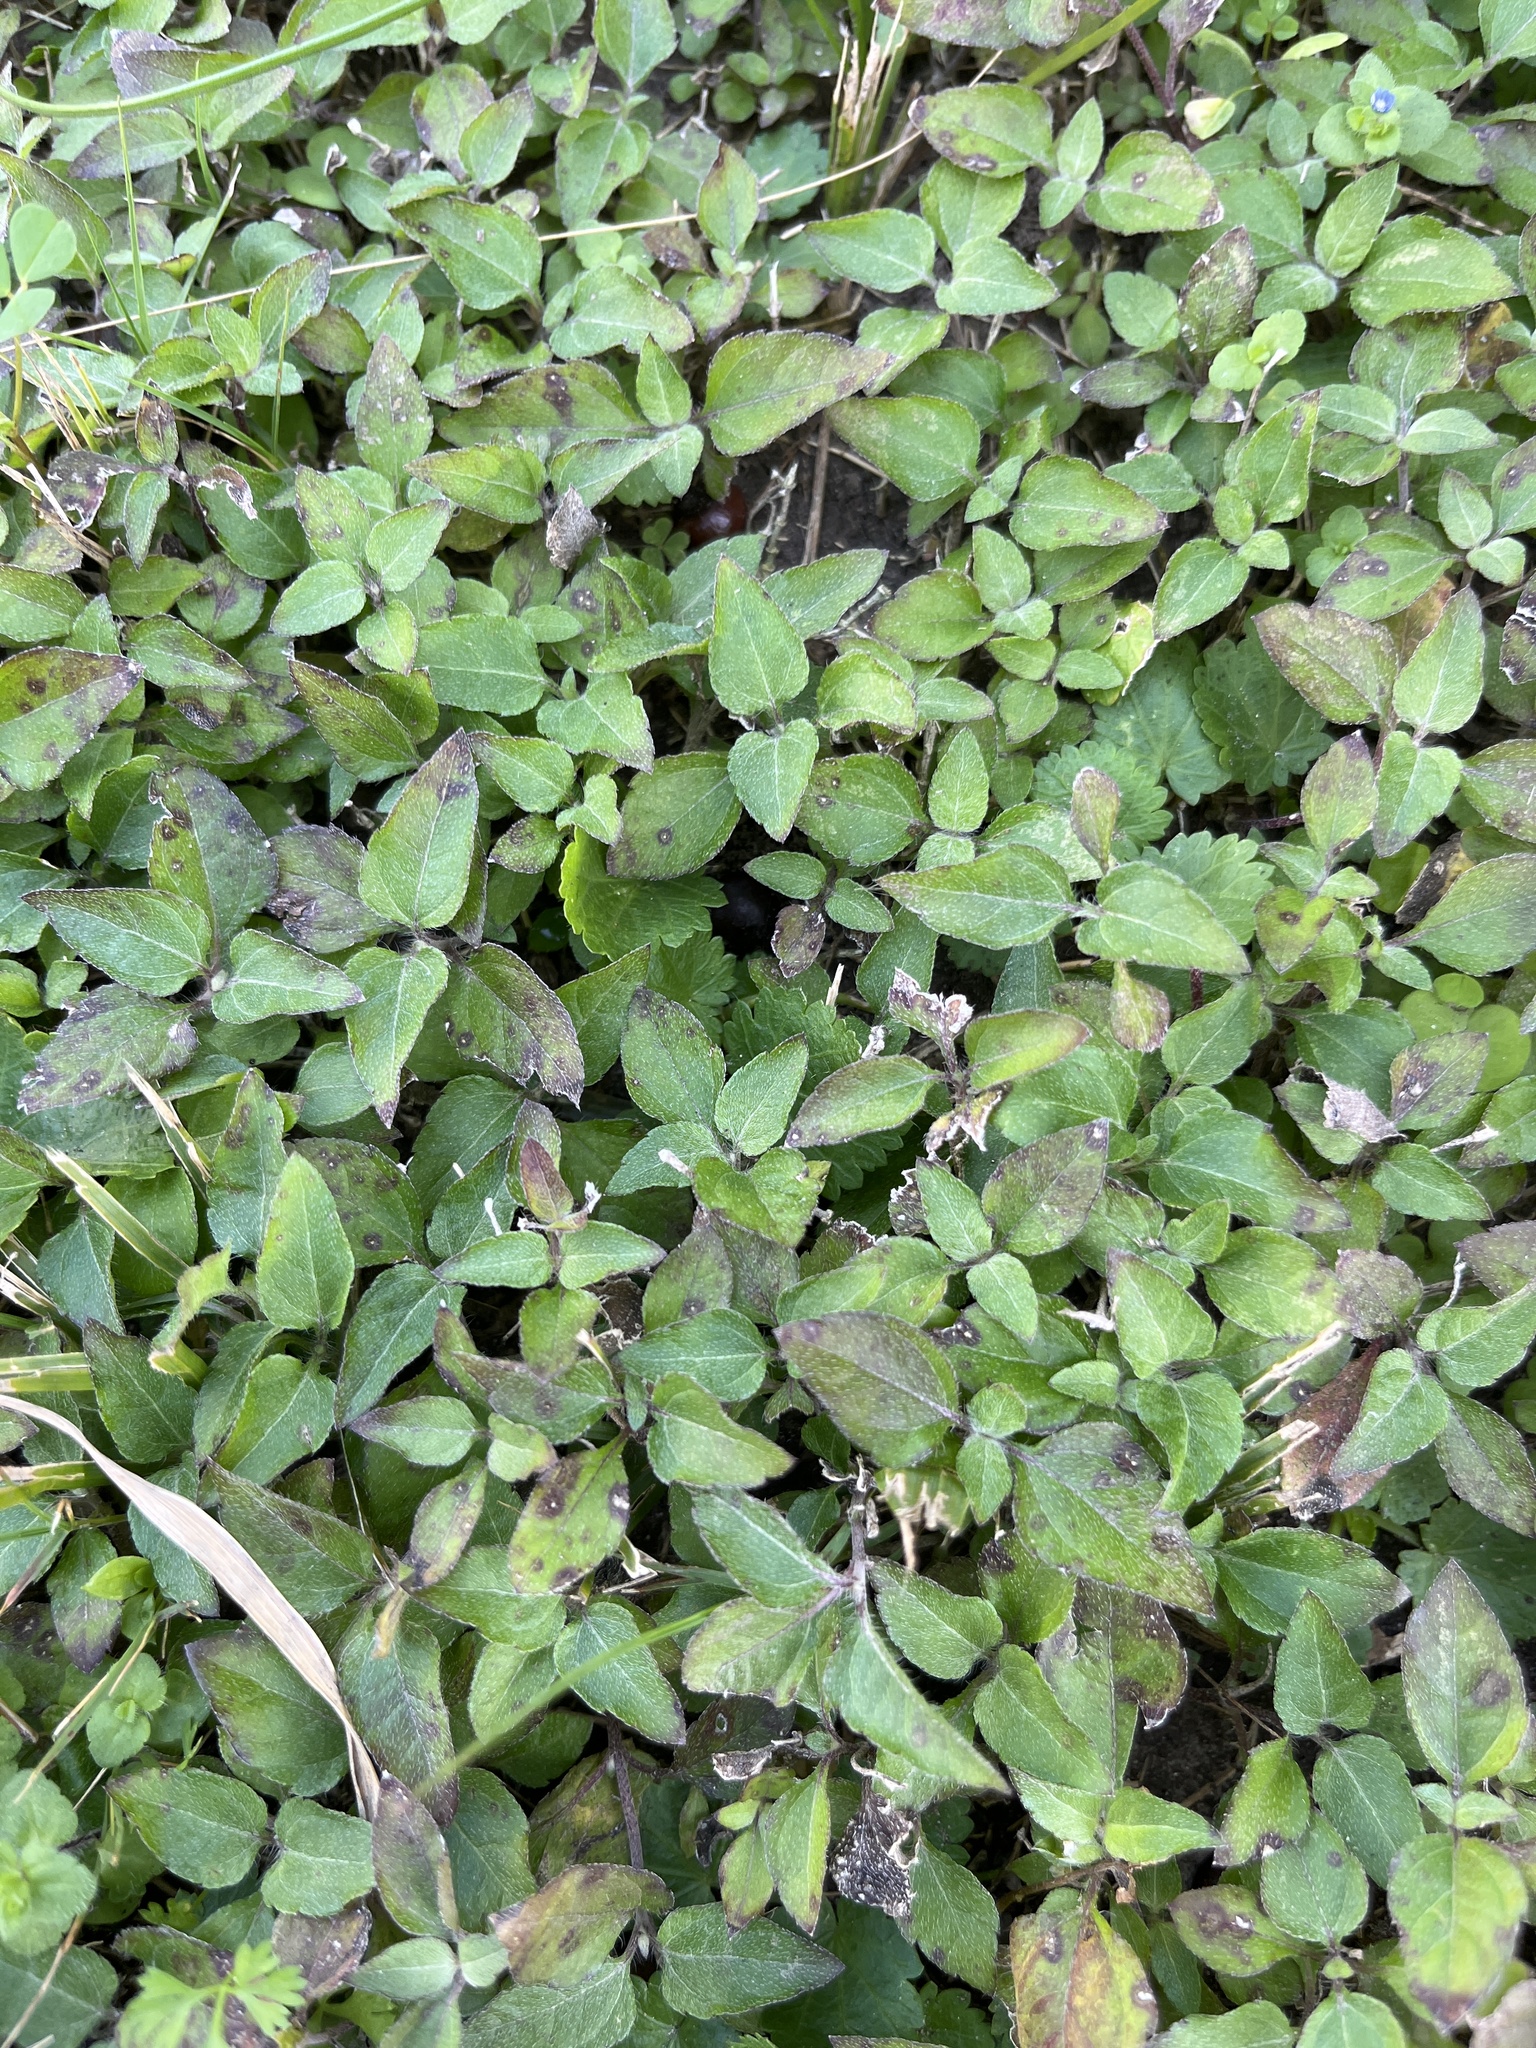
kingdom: Plantae
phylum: Tracheophyta
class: Magnoliopsida
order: Asterales
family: Asteraceae
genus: Calyptocarpus
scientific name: Calyptocarpus vialis
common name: Straggler daisy
